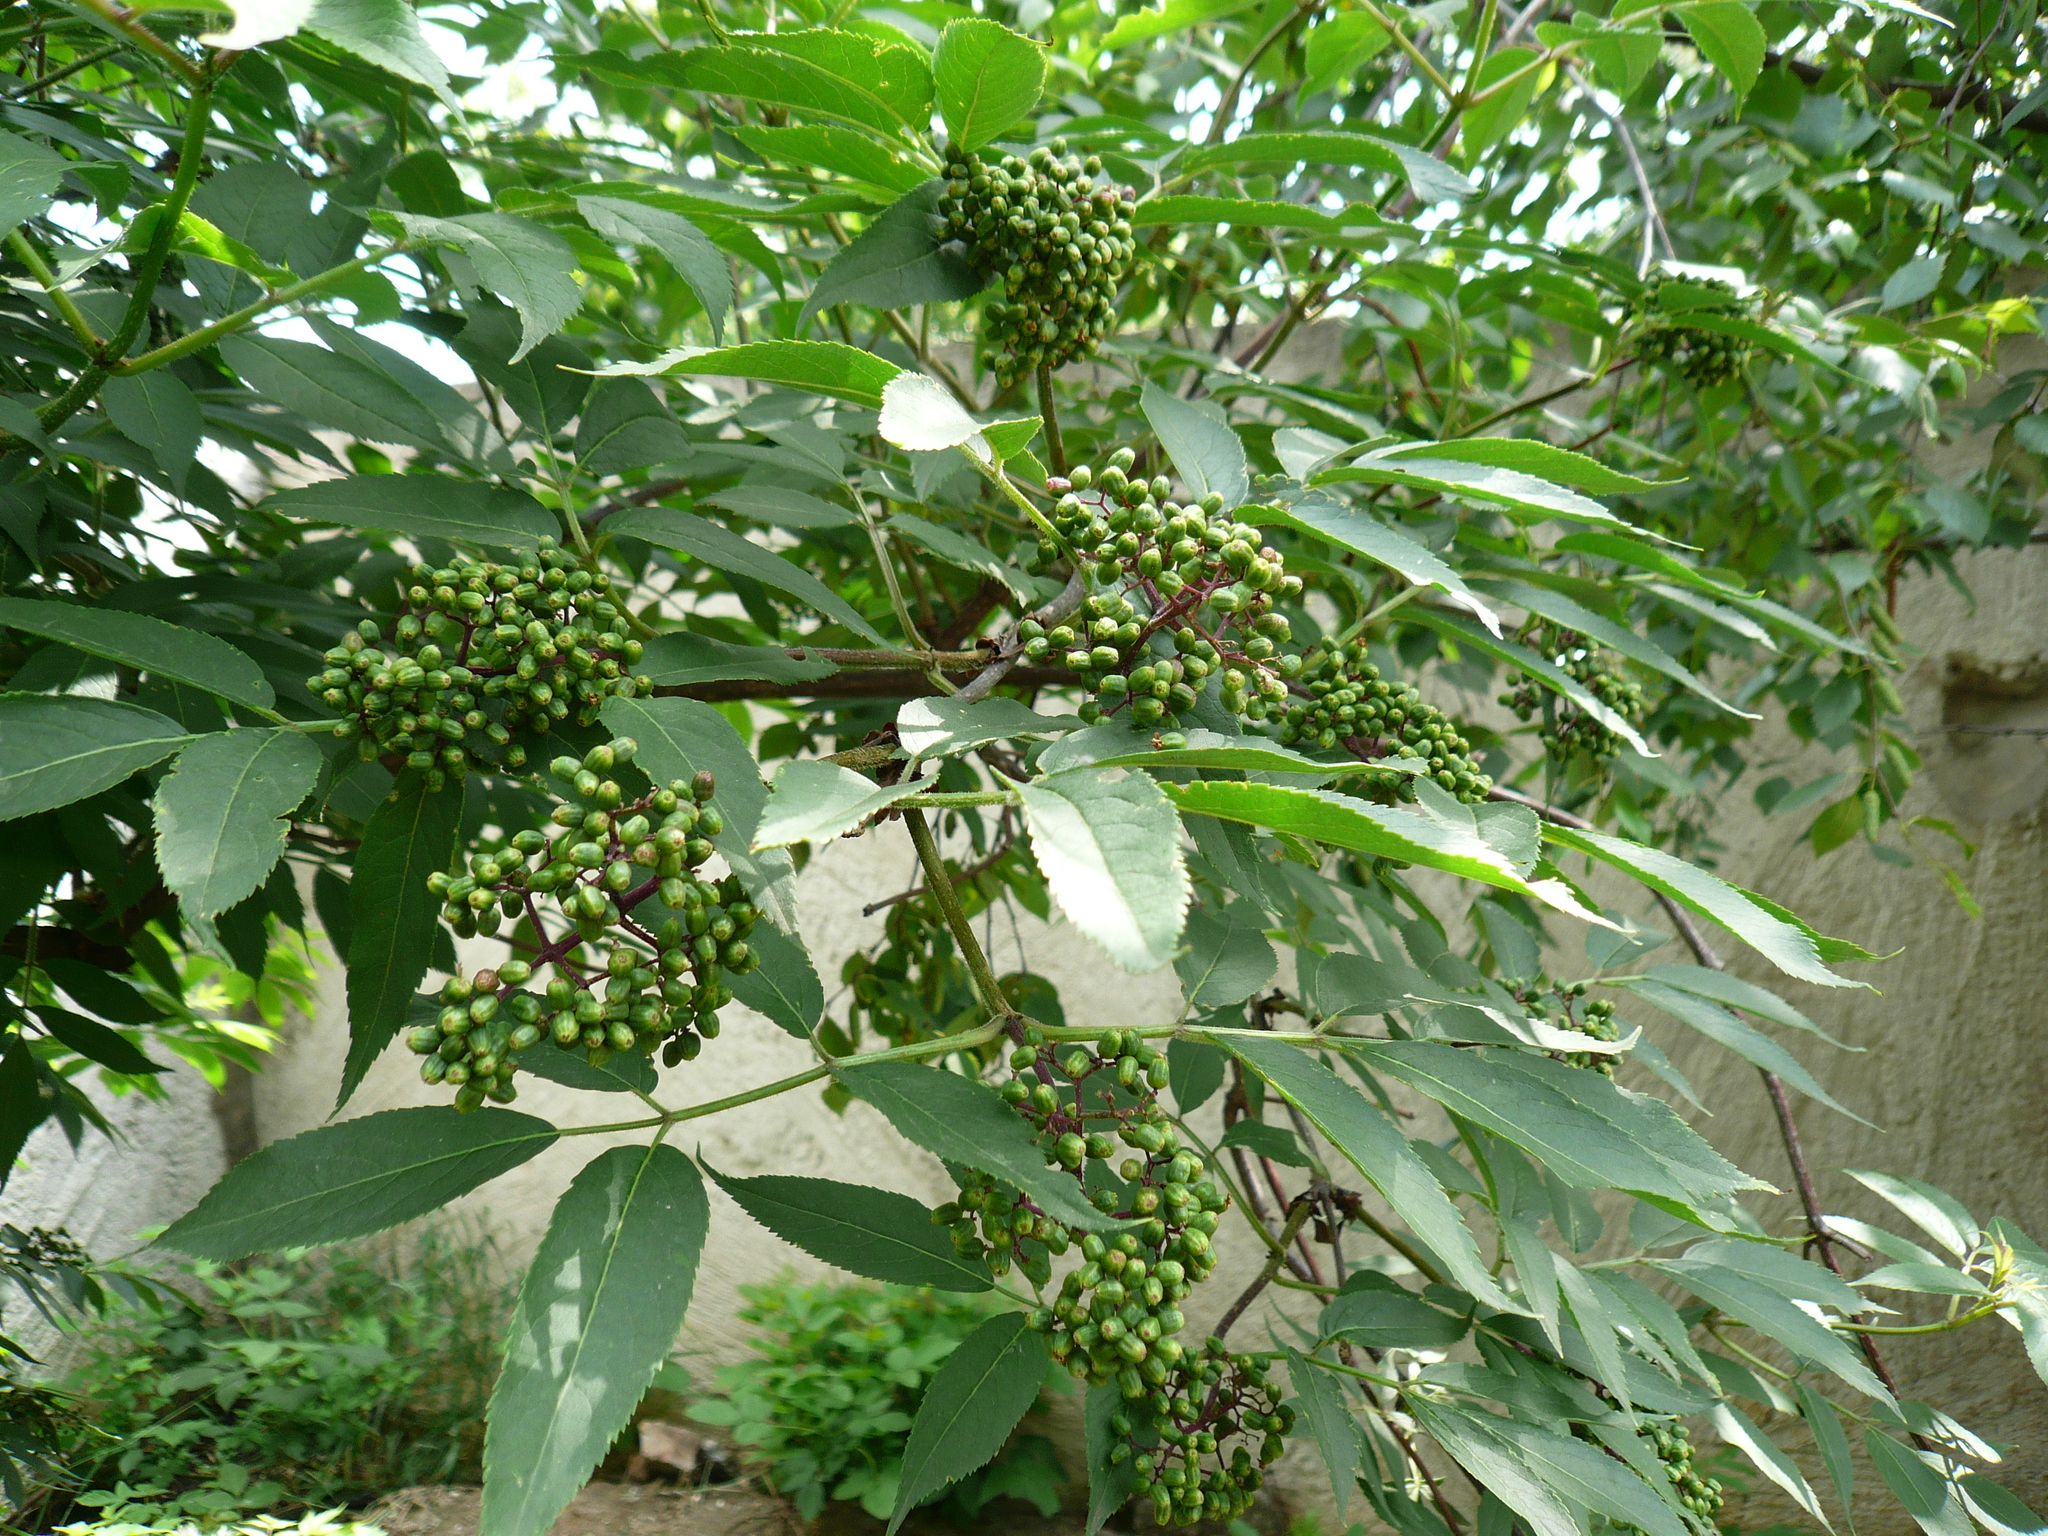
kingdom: Plantae
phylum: Tracheophyta
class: Magnoliopsida
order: Dipsacales
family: Viburnaceae
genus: Sambucus
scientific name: Sambucus racemosa
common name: Red-berried elder
